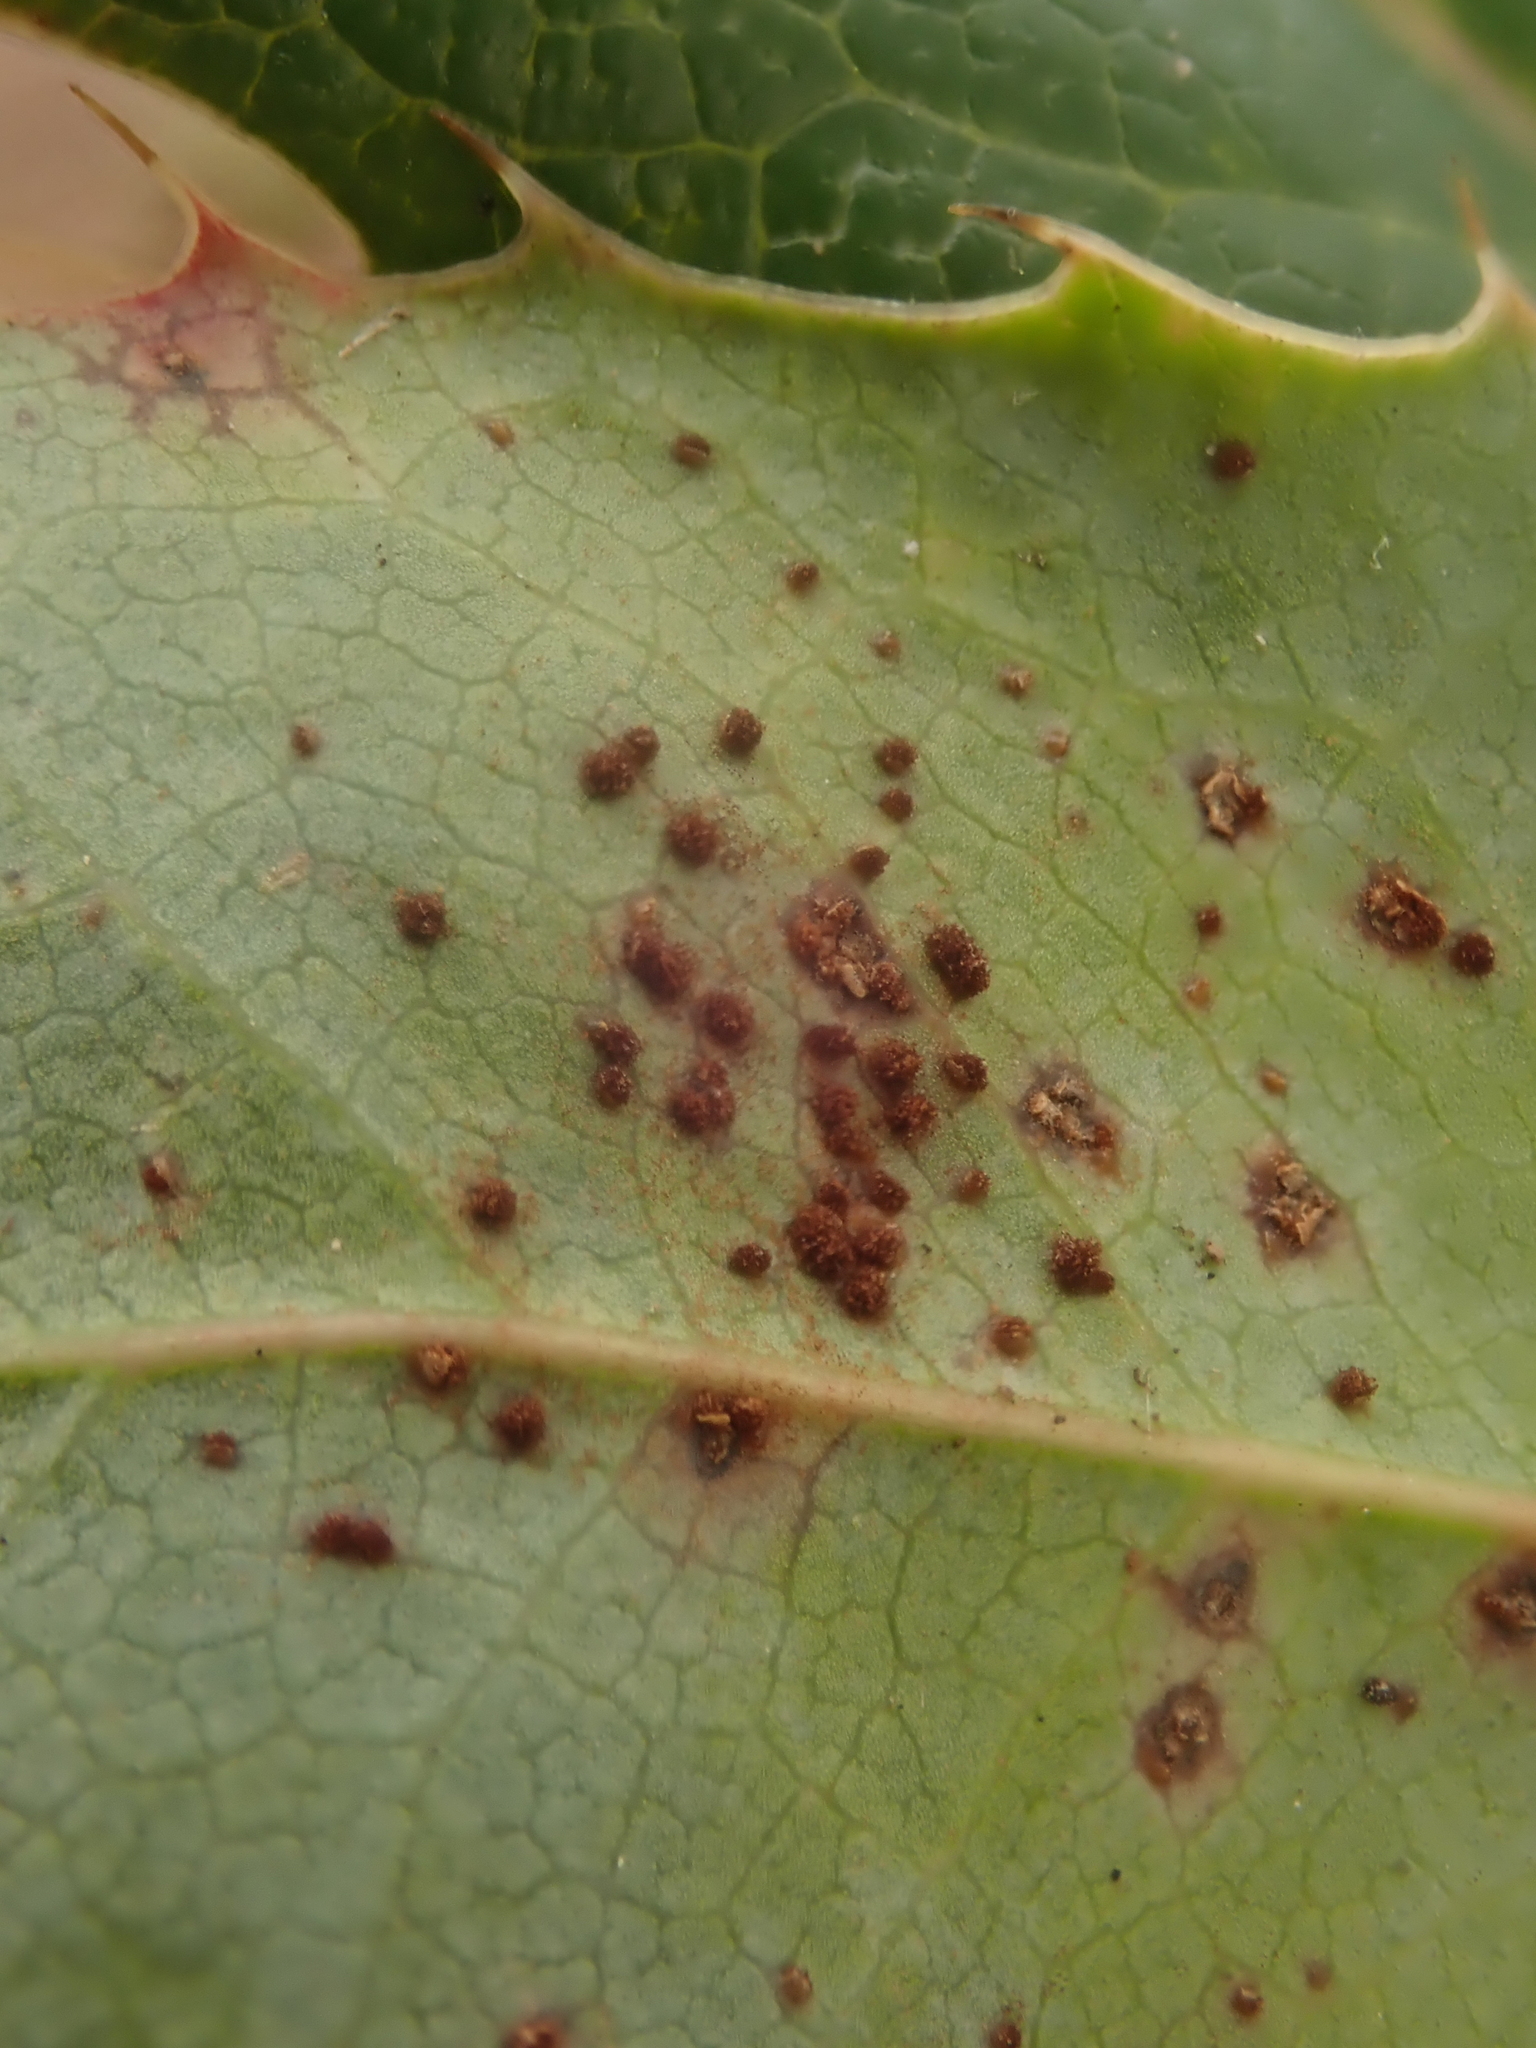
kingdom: Fungi
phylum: Basidiomycota
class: Pucciniomycetes
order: Pucciniales
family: Pucciniaceae
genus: Cumminsiella
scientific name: Cumminsiella mirabilissima
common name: Mahonia rust
